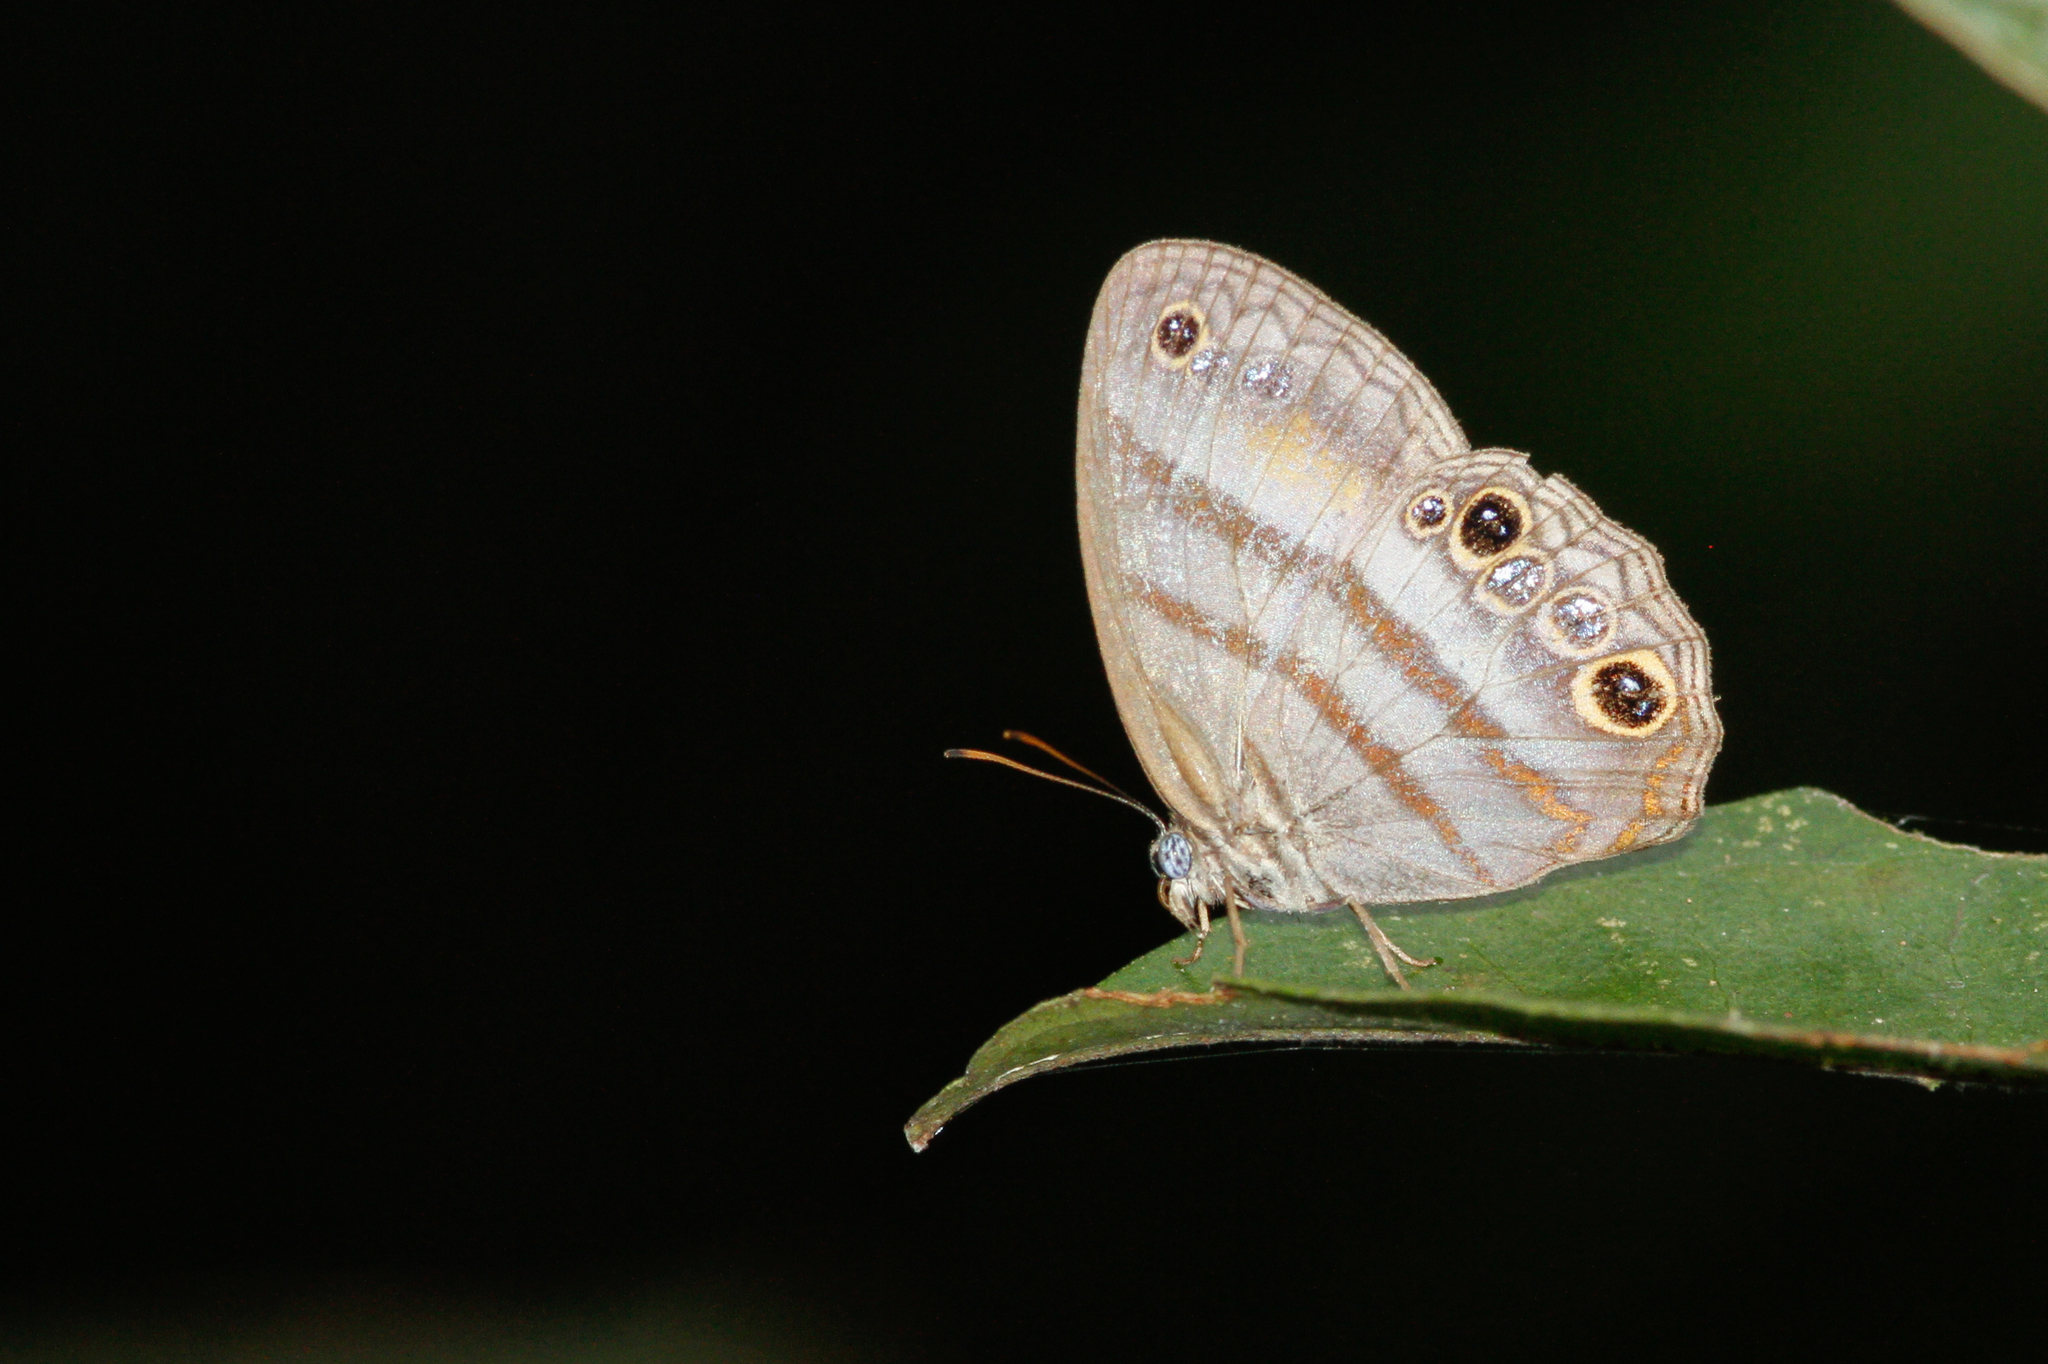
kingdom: Animalia
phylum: Arthropoda
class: Insecta
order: Lepidoptera
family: Nymphalidae
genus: Modica
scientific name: Modica
